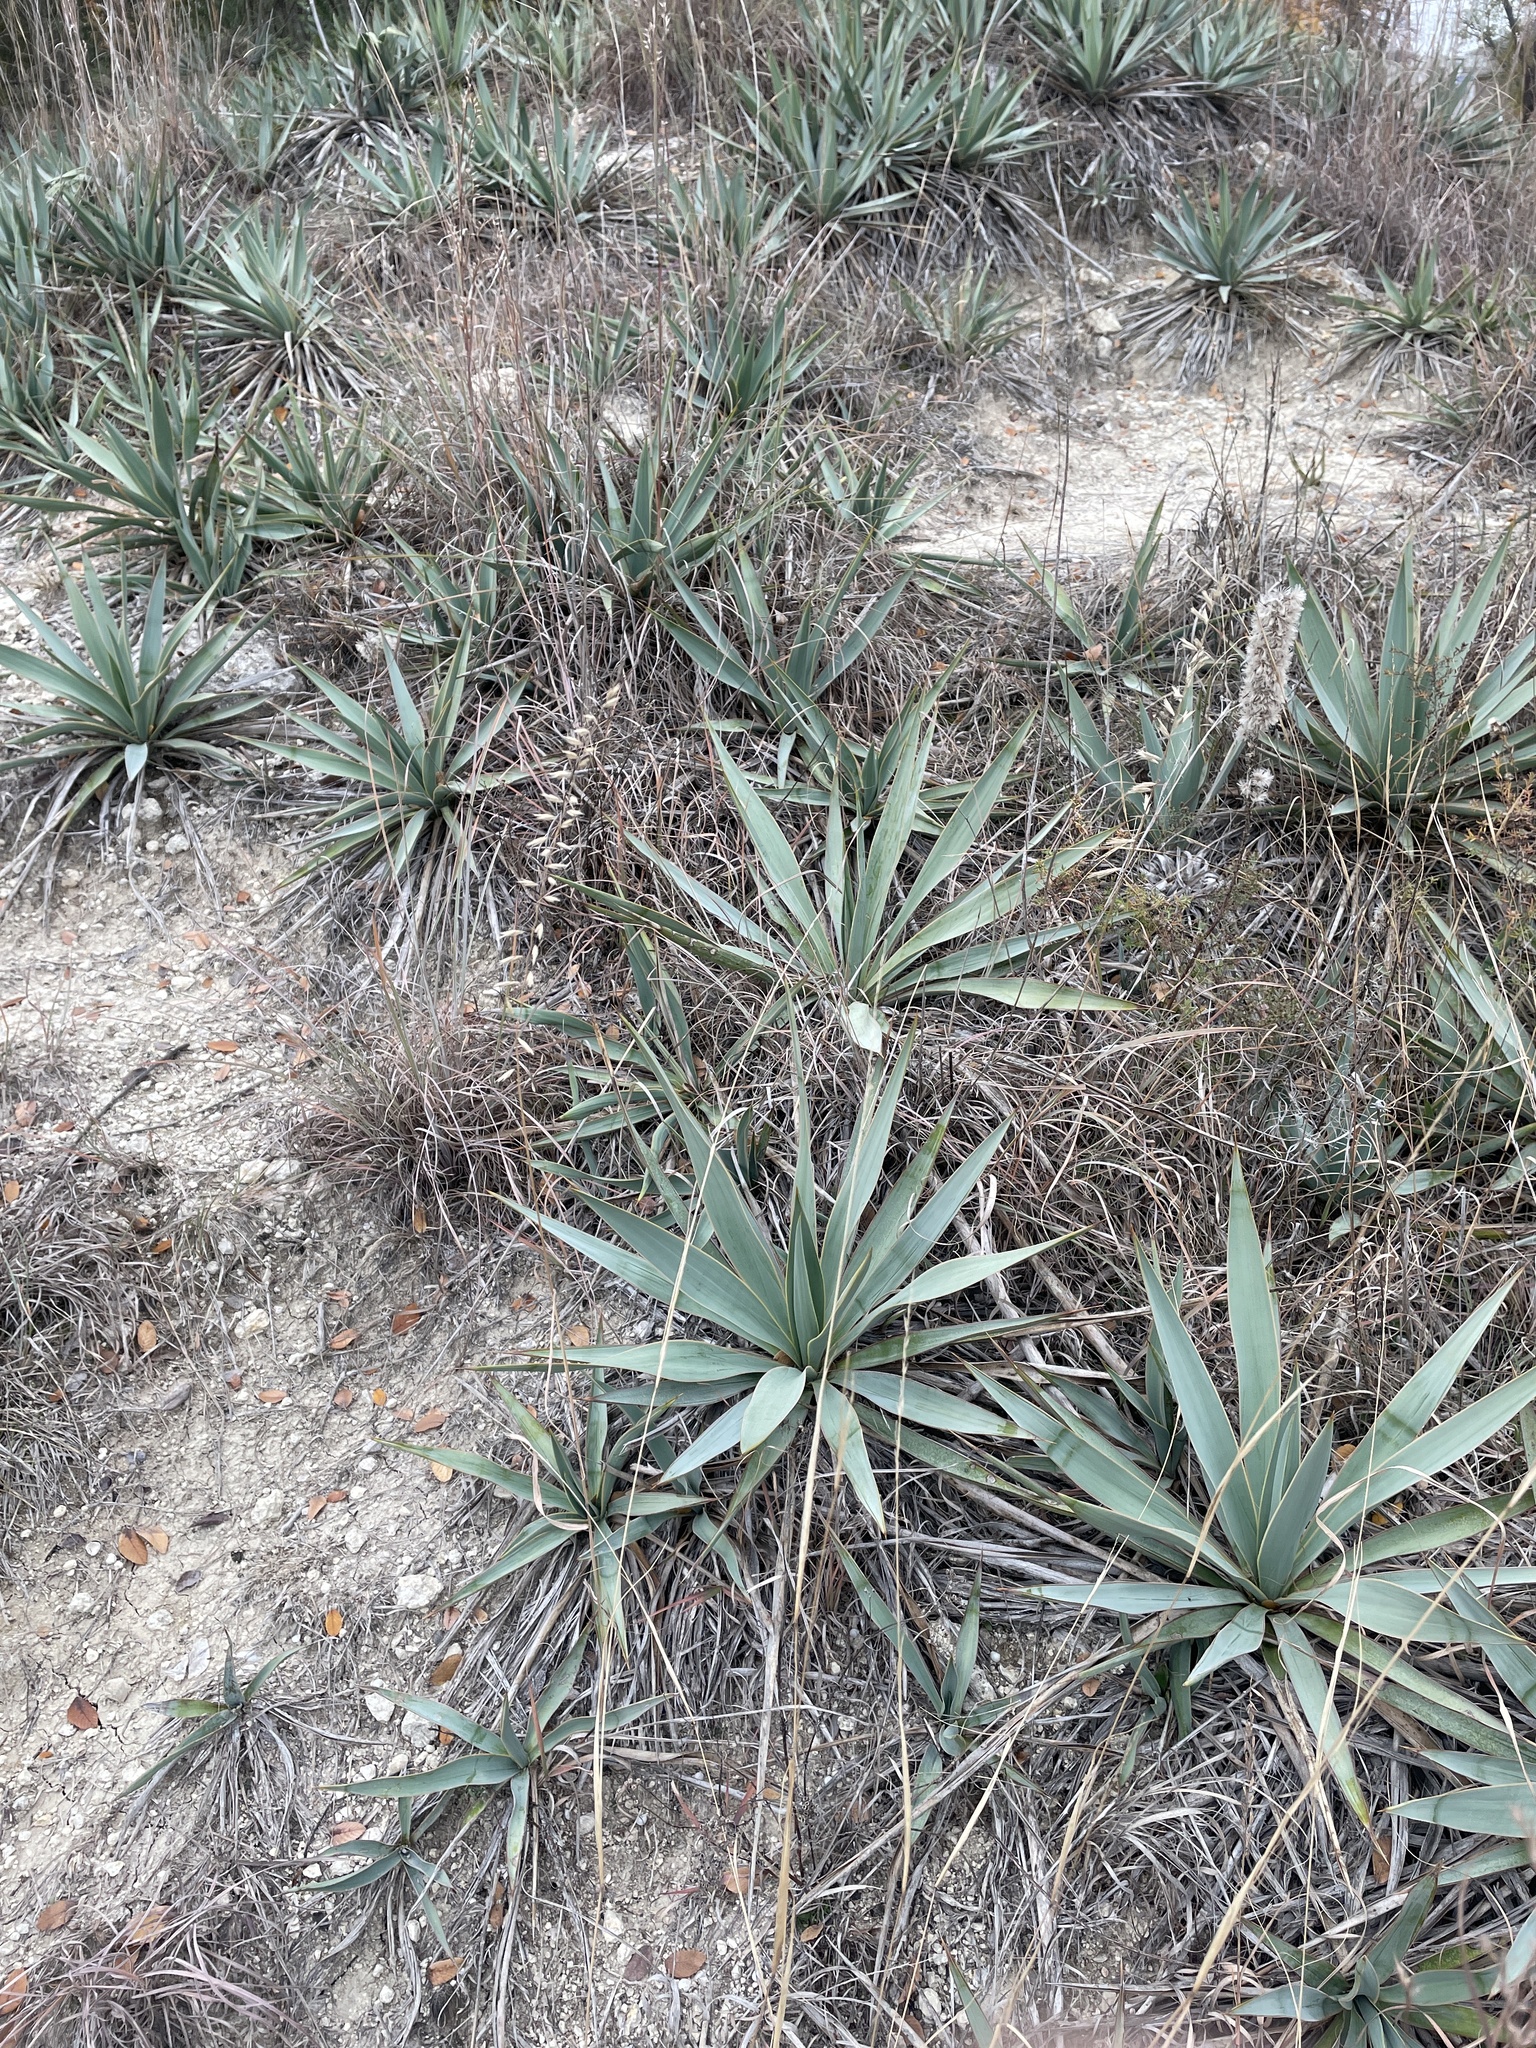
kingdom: Plantae
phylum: Tracheophyta
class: Liliopsida
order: Poales
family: Poaceae
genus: Bouteloua
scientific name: Bouteloua curtipendula
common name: Side-oats grama
